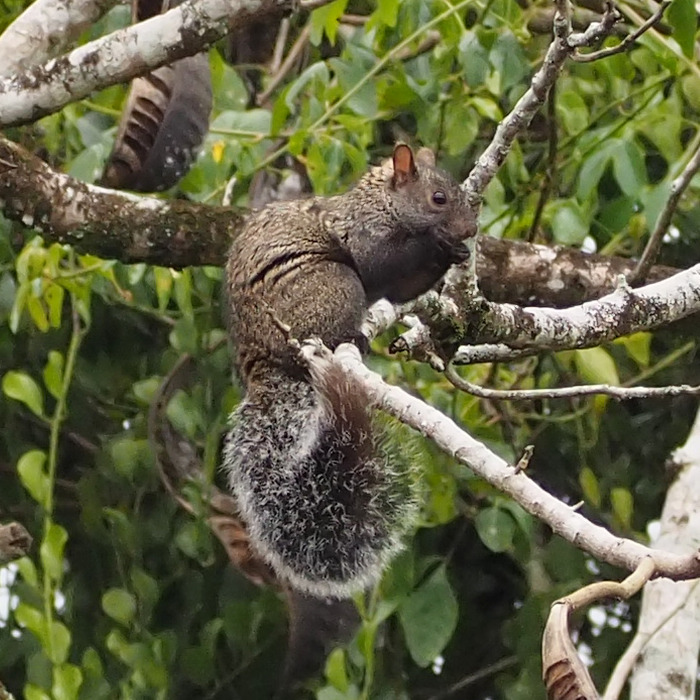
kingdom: Animalia
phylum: Chordata
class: Mammalia
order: Rodentia
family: Sciuridae
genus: Sciurus
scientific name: Sciurus yucatanensis
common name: Yucatan squirrel
